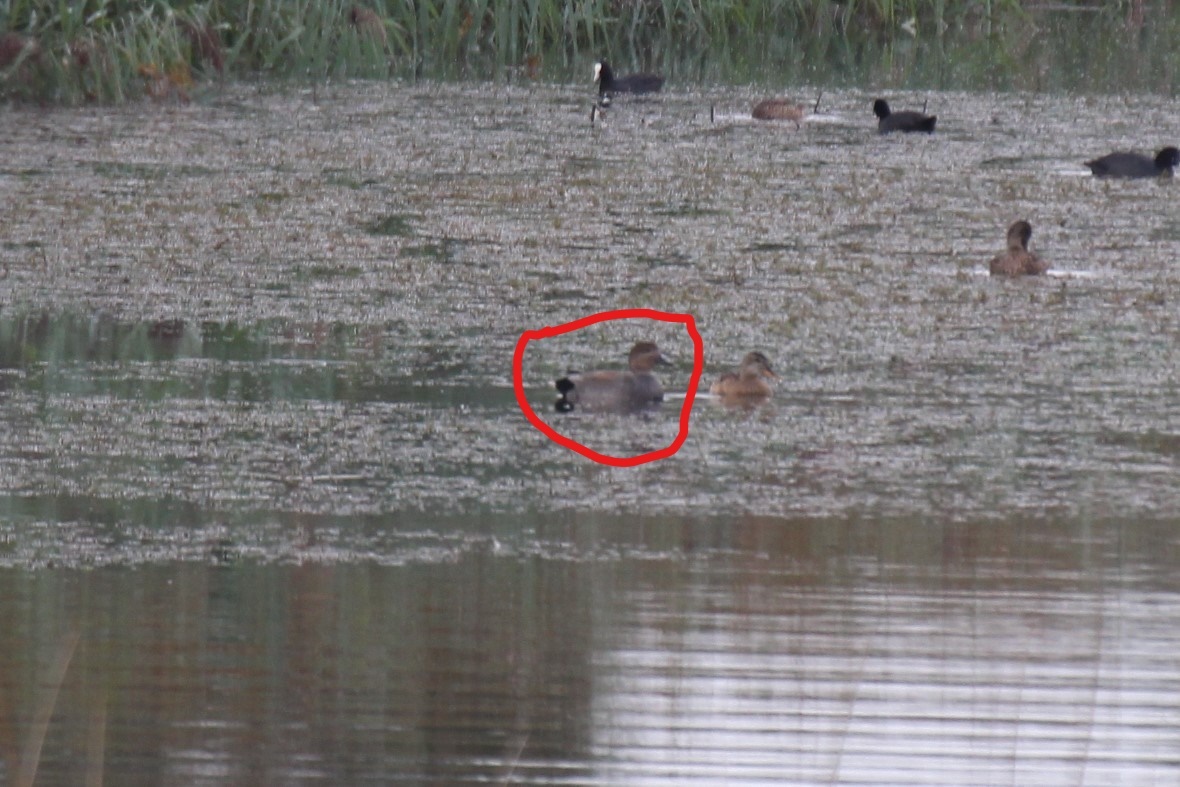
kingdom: Animalia
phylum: Chordata
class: Aves
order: Anseriformes
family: Anatidae
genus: Mareca
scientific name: Mareca strepera
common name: Gadwall
